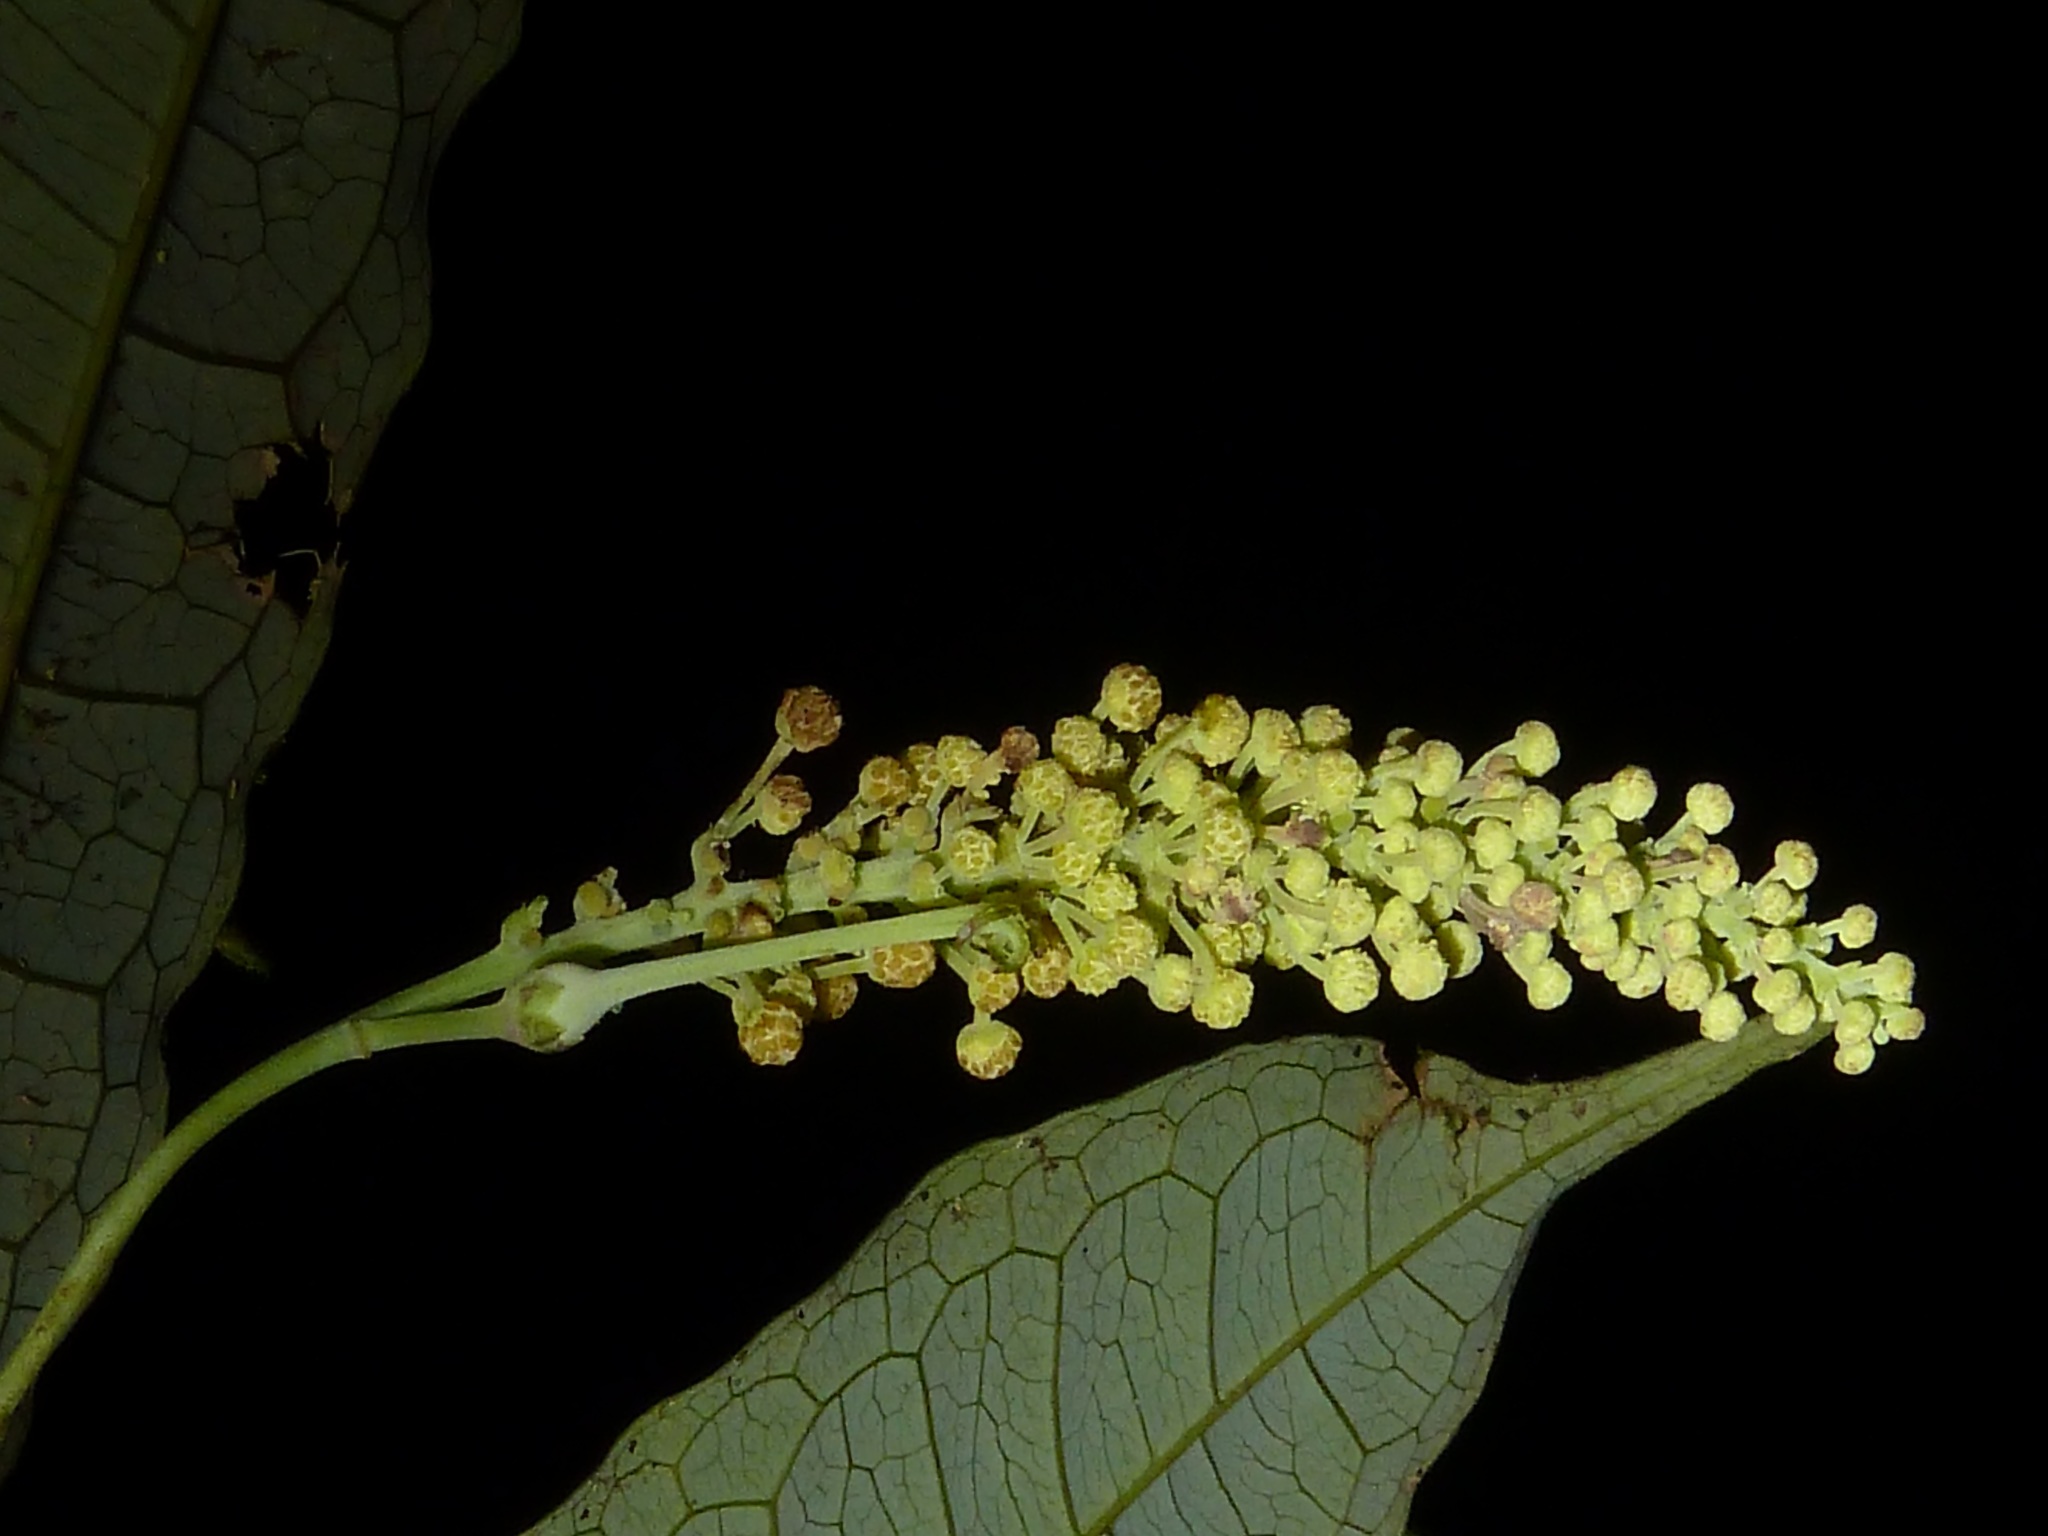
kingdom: Plantae
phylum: Tracheophyta
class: Magnoliopsida
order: Malpighiales
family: Euphorbiaceae
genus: Mabea
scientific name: Mabea occidentalis
